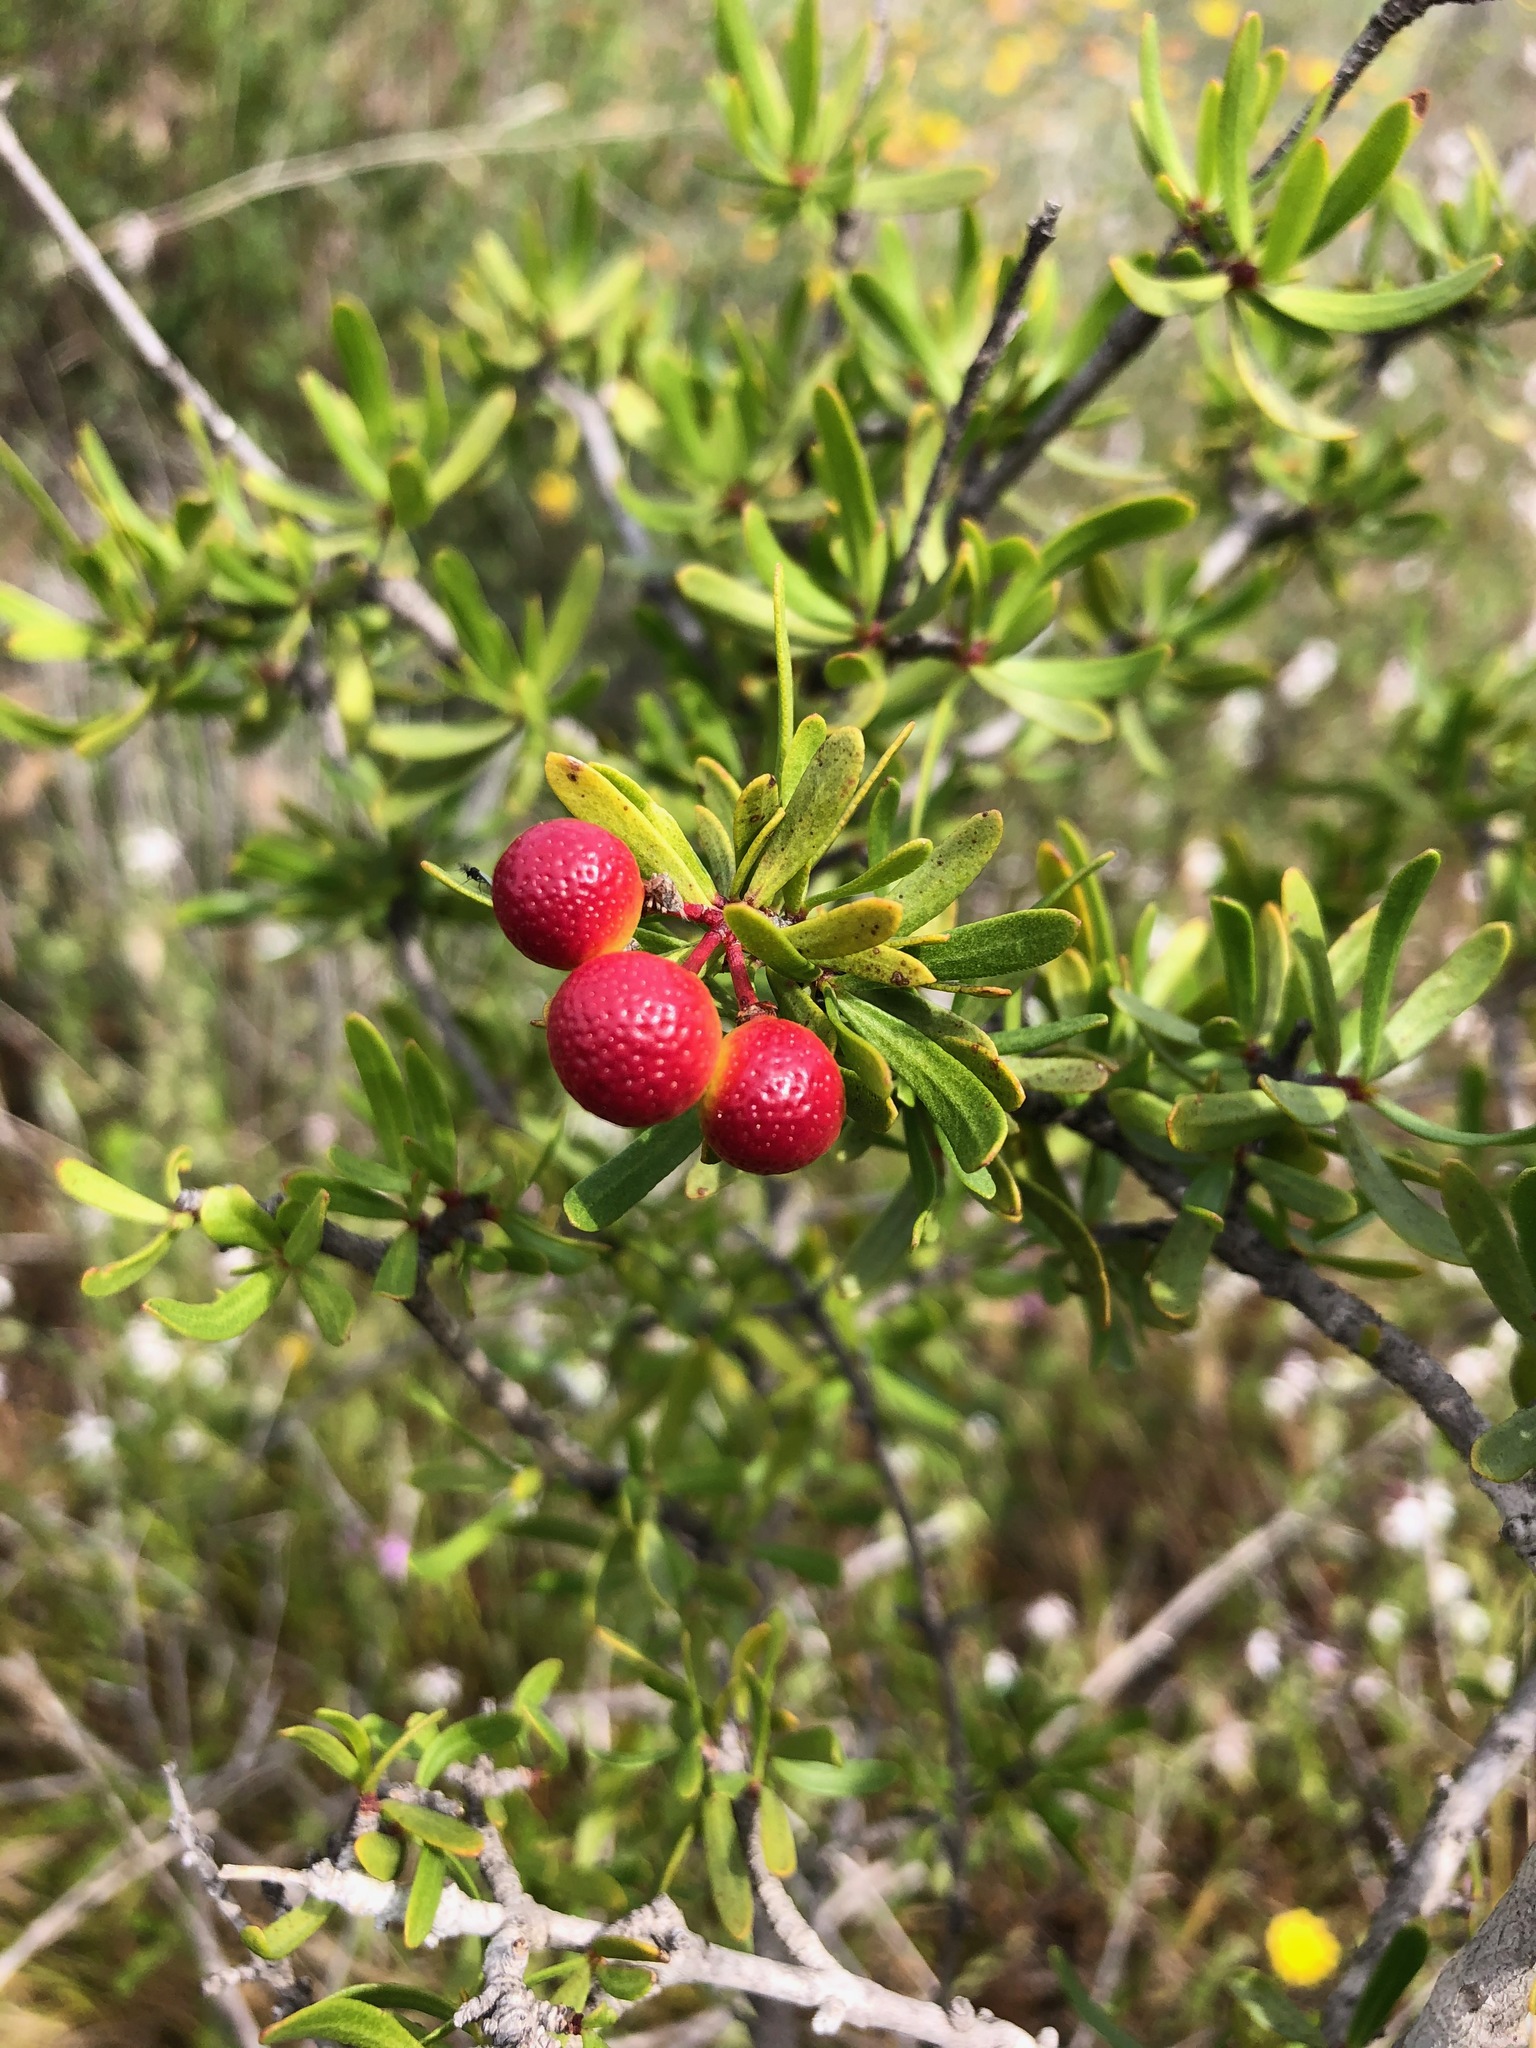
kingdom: Plantae
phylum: Tracheophyta
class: Magnoliopsida
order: Sapindales
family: Rutaceae
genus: Cneoridium
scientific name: Cneoridium dumosum
